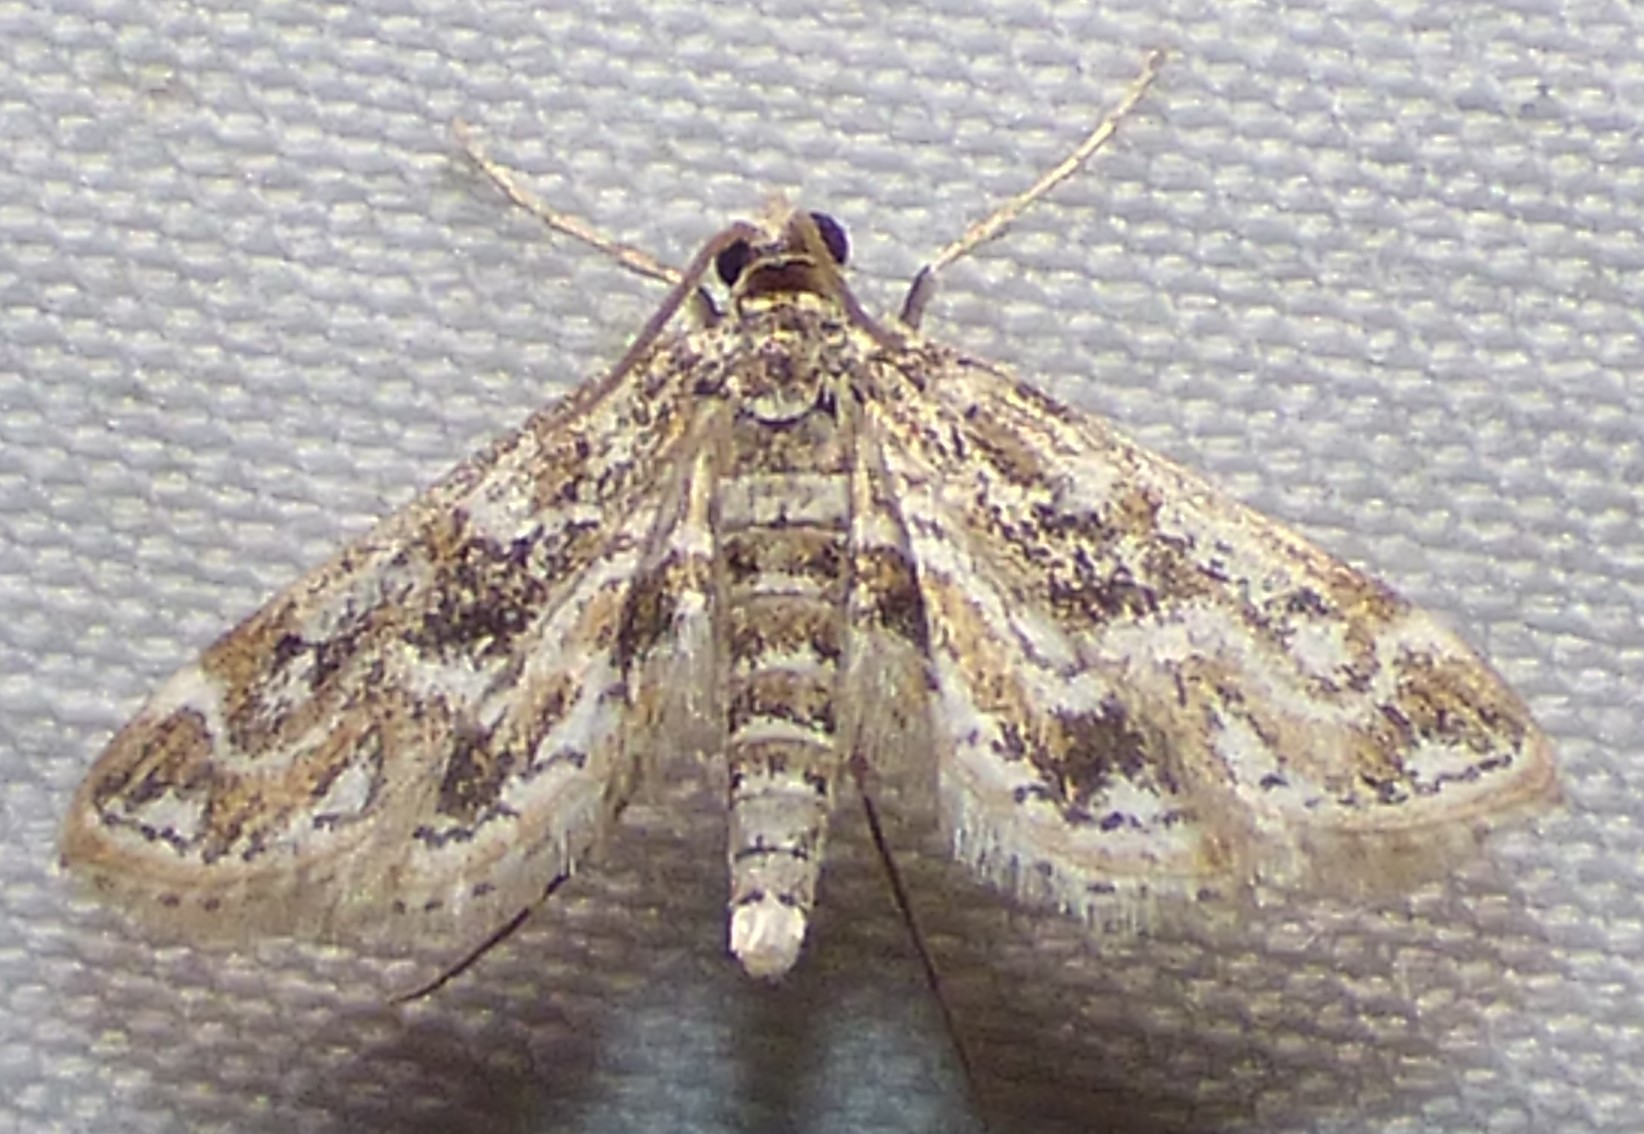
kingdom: Animalia
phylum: Arthropoda
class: Insecta
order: Lepidoptera
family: Crambidae
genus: Parapoynx
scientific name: Parapoynx diminutalis
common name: Hydrilla leafcutter
